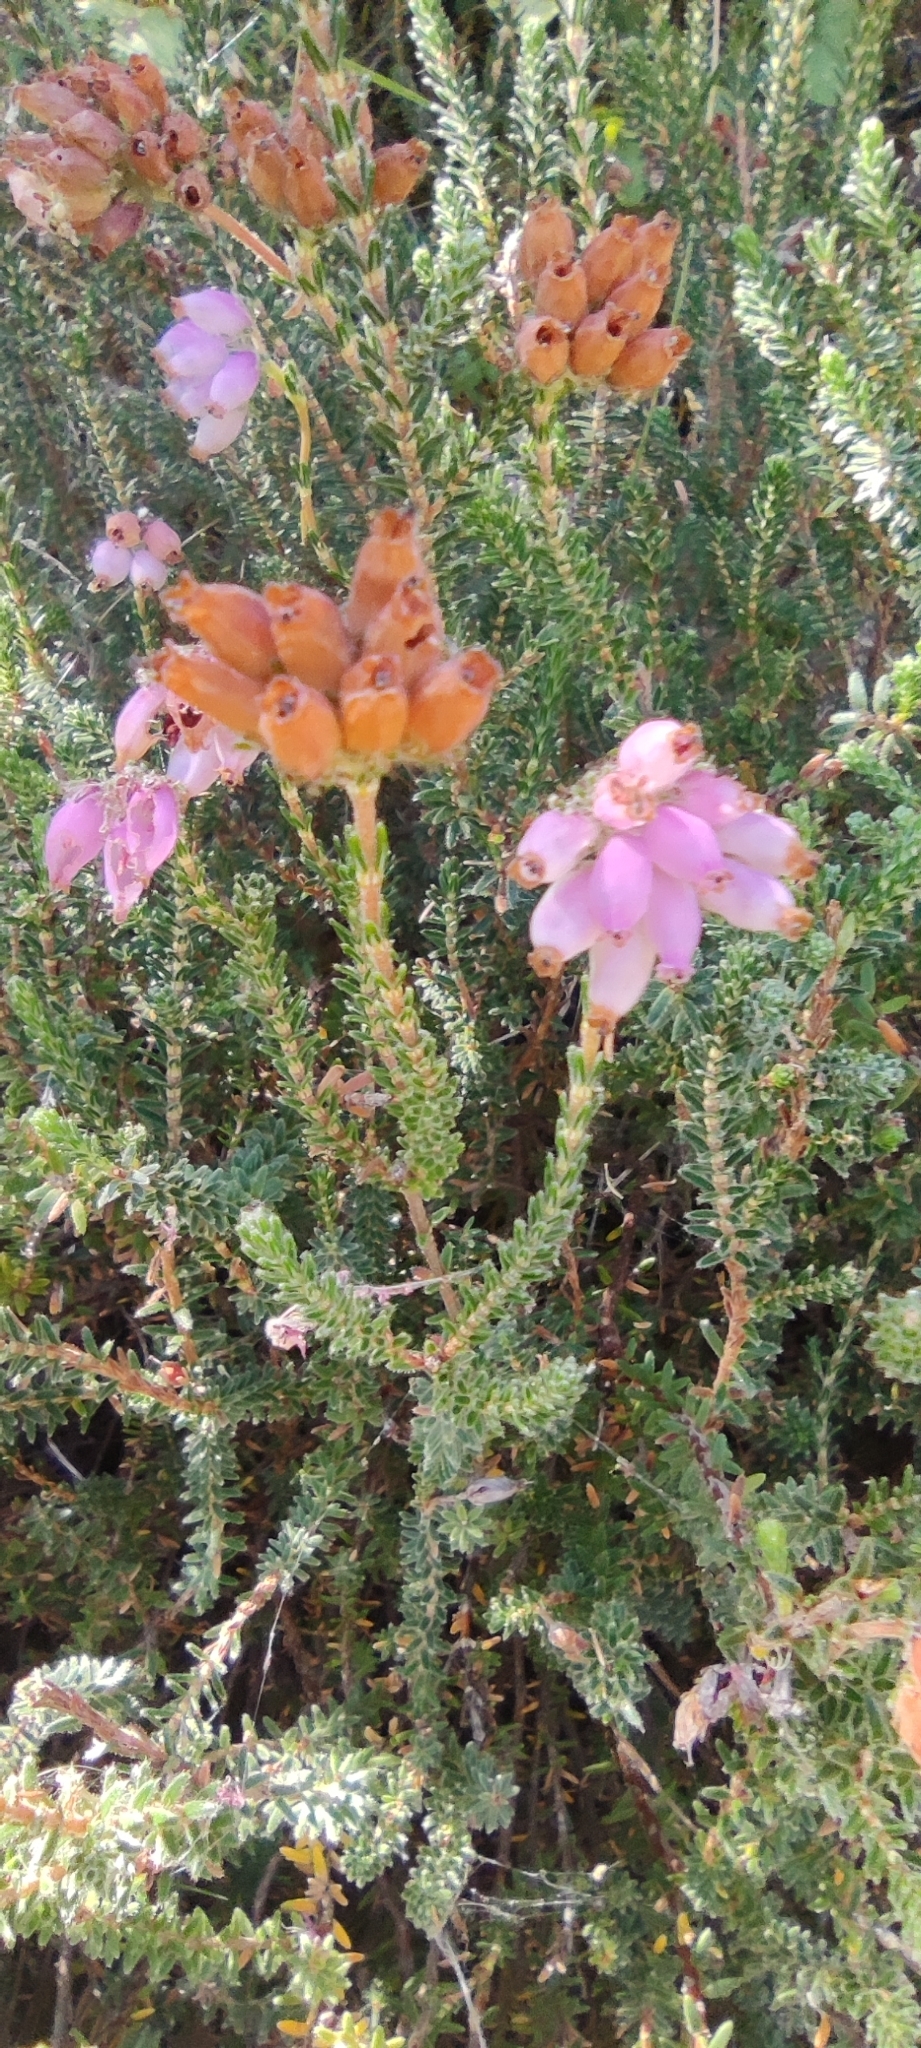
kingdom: Plantae
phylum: Tracheophyta
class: Magnoliopsida
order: Ericales
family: Ericaceae
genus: Erica
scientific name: Erica tetralix
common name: Cross-leaved heath
